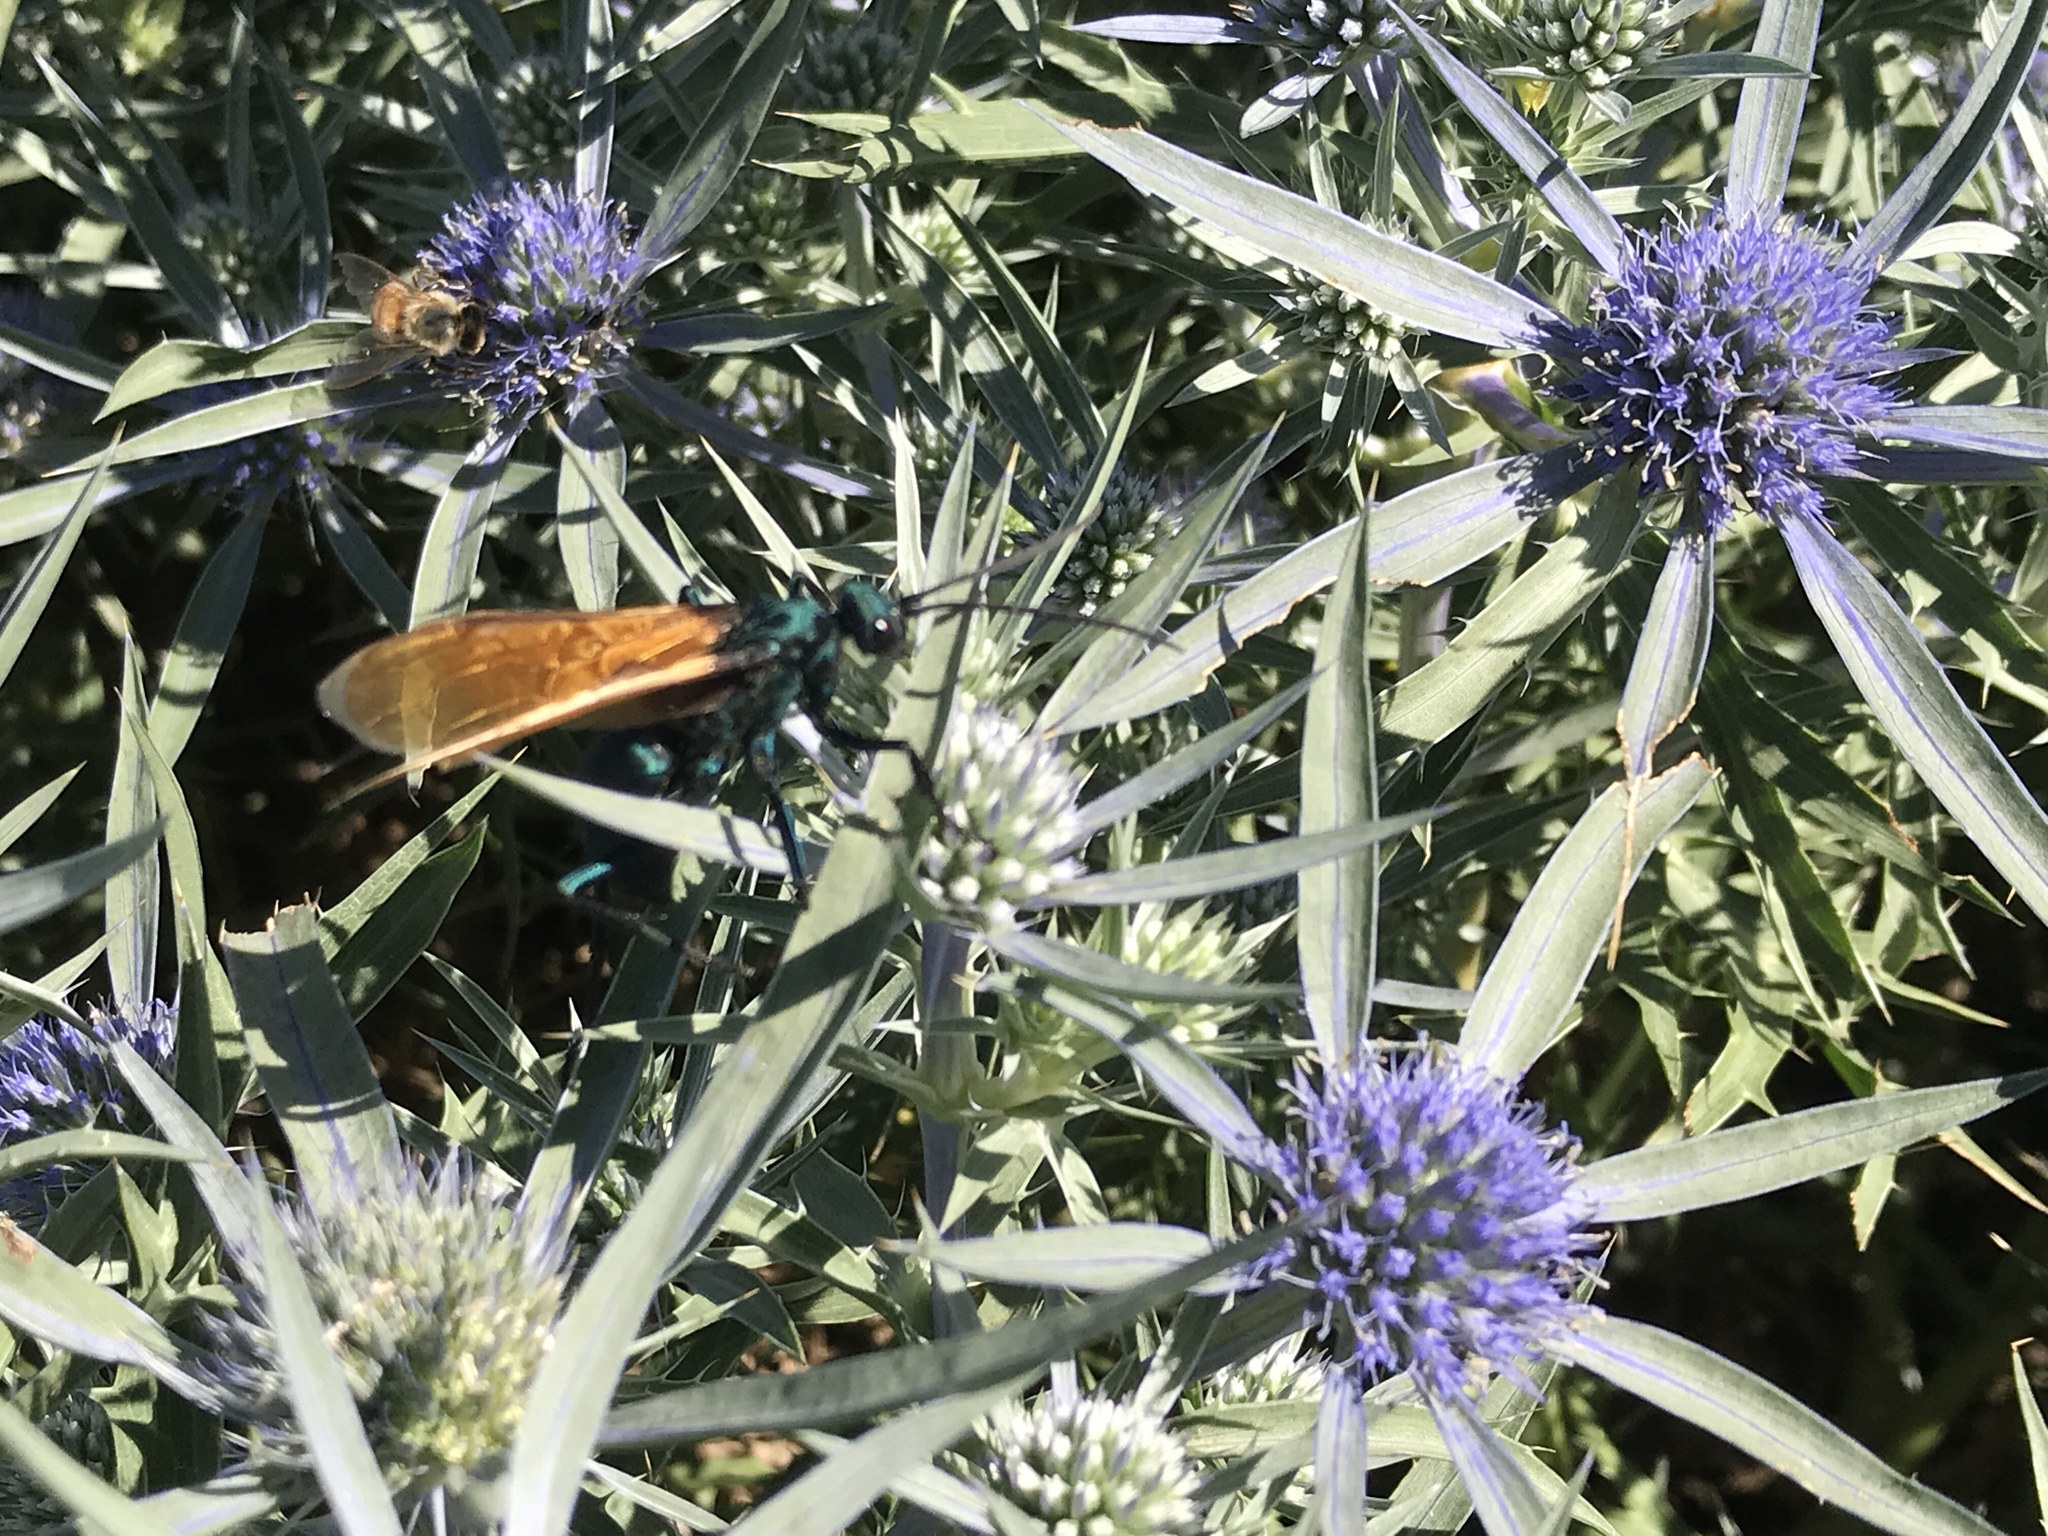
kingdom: Animalia
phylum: Arthropoda
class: Insecta
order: Hymenoptera
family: Pompilidae
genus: Pepsis
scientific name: Pepsis pallidolimbata
